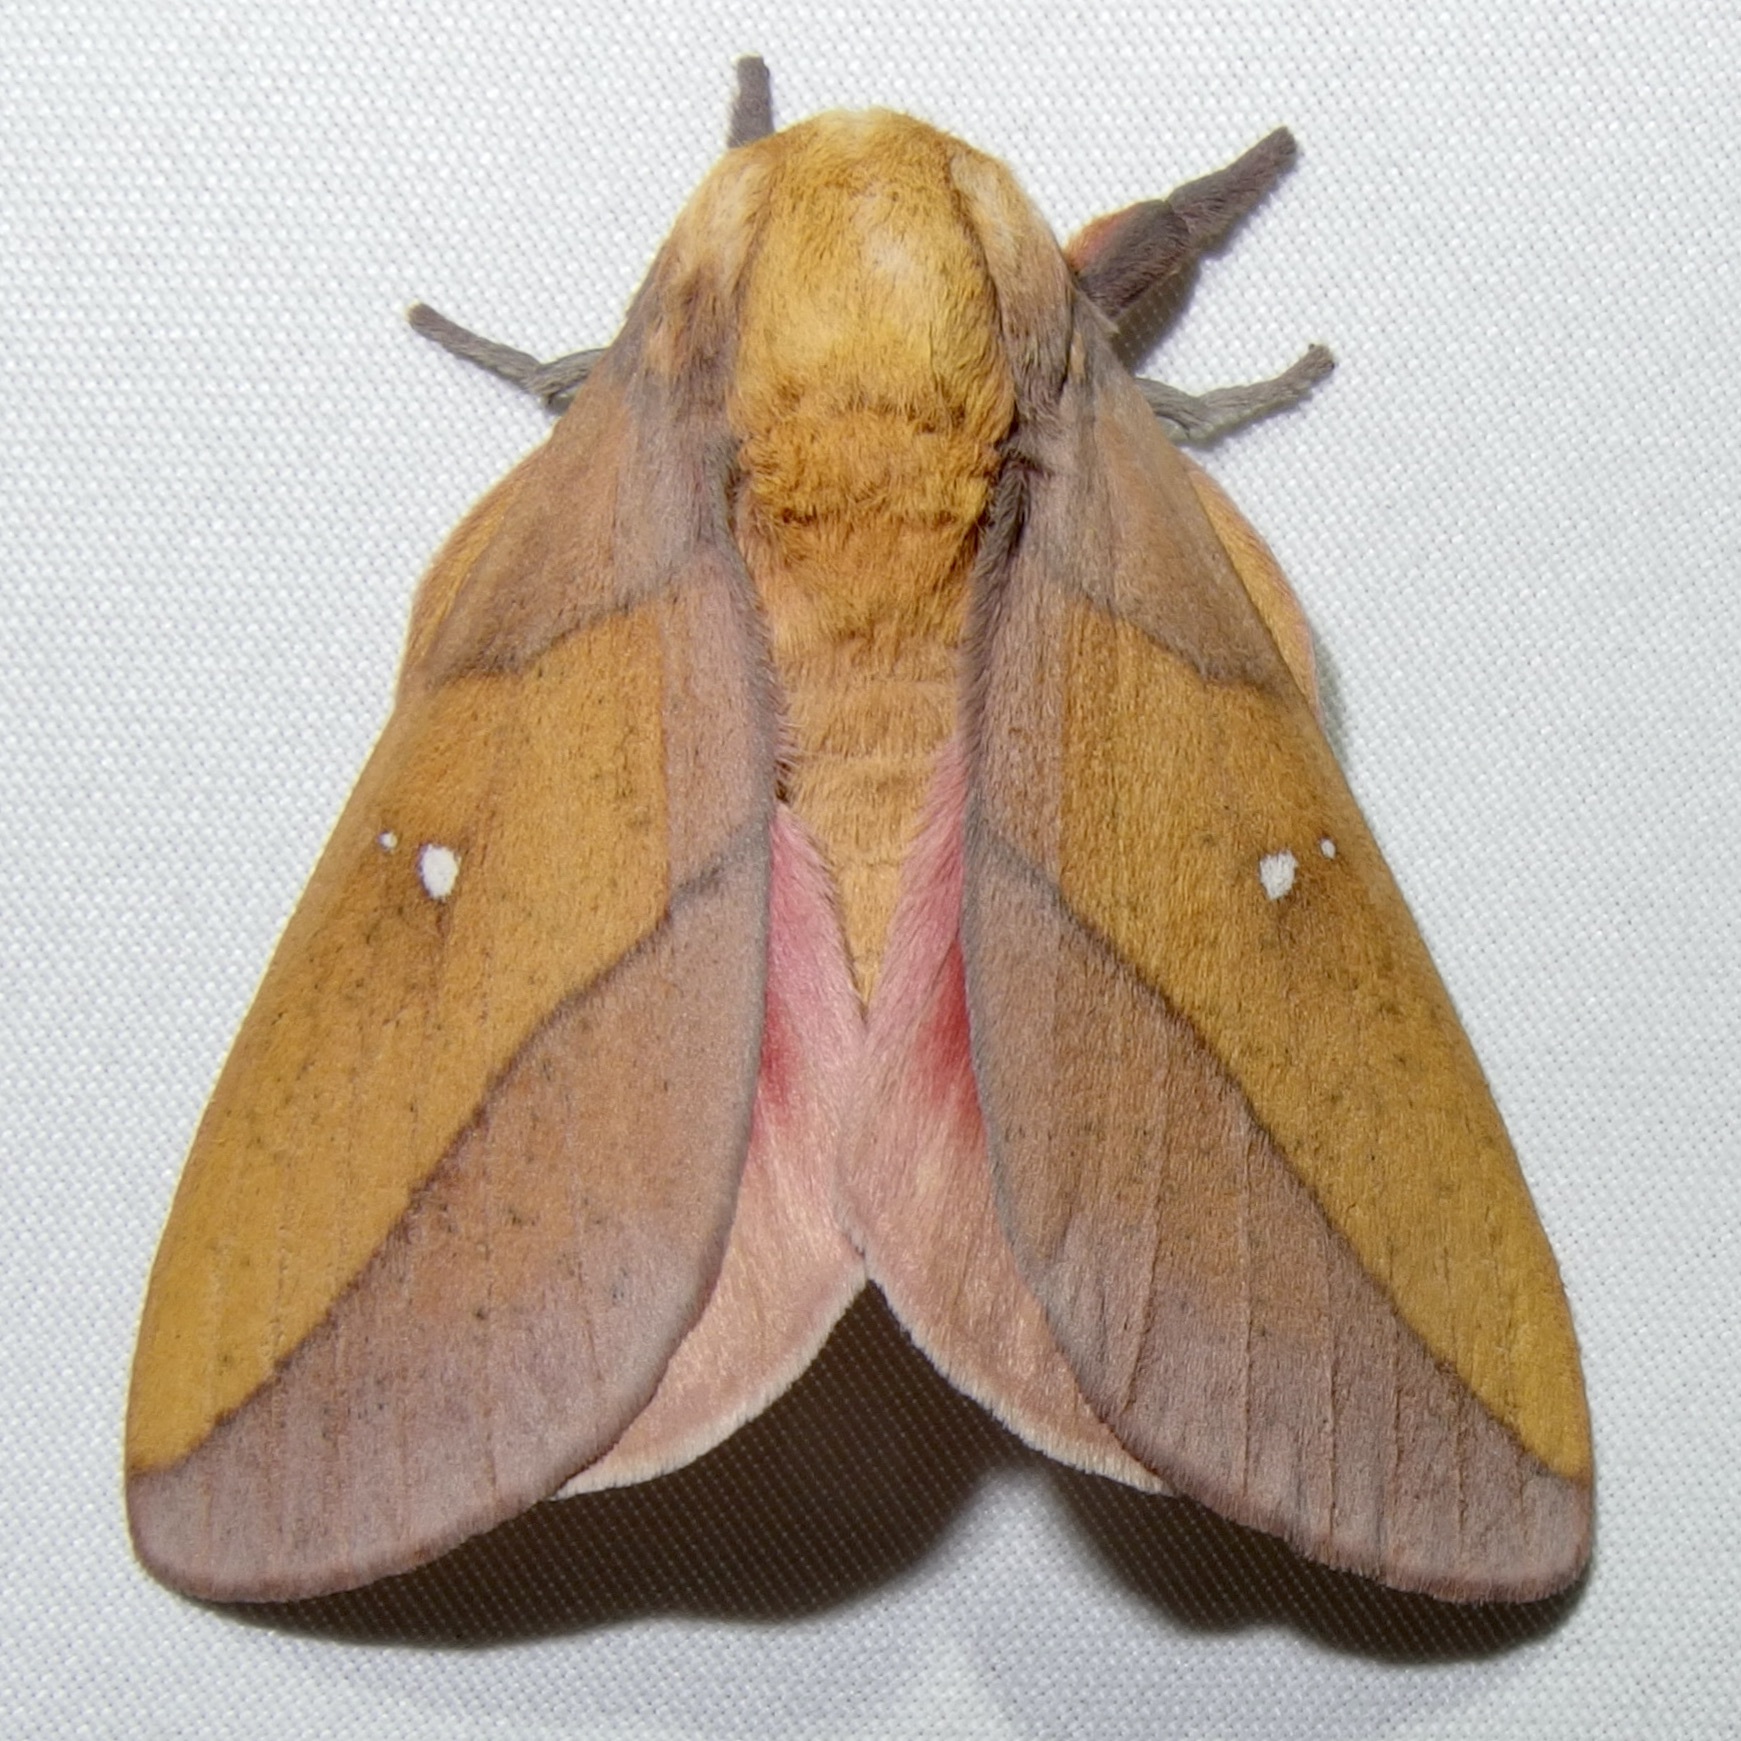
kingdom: Animalia
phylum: Arthropoda
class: Insecta
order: Lepidoptera
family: Saturniidae
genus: Syssphinx
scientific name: Syssphinx montana
